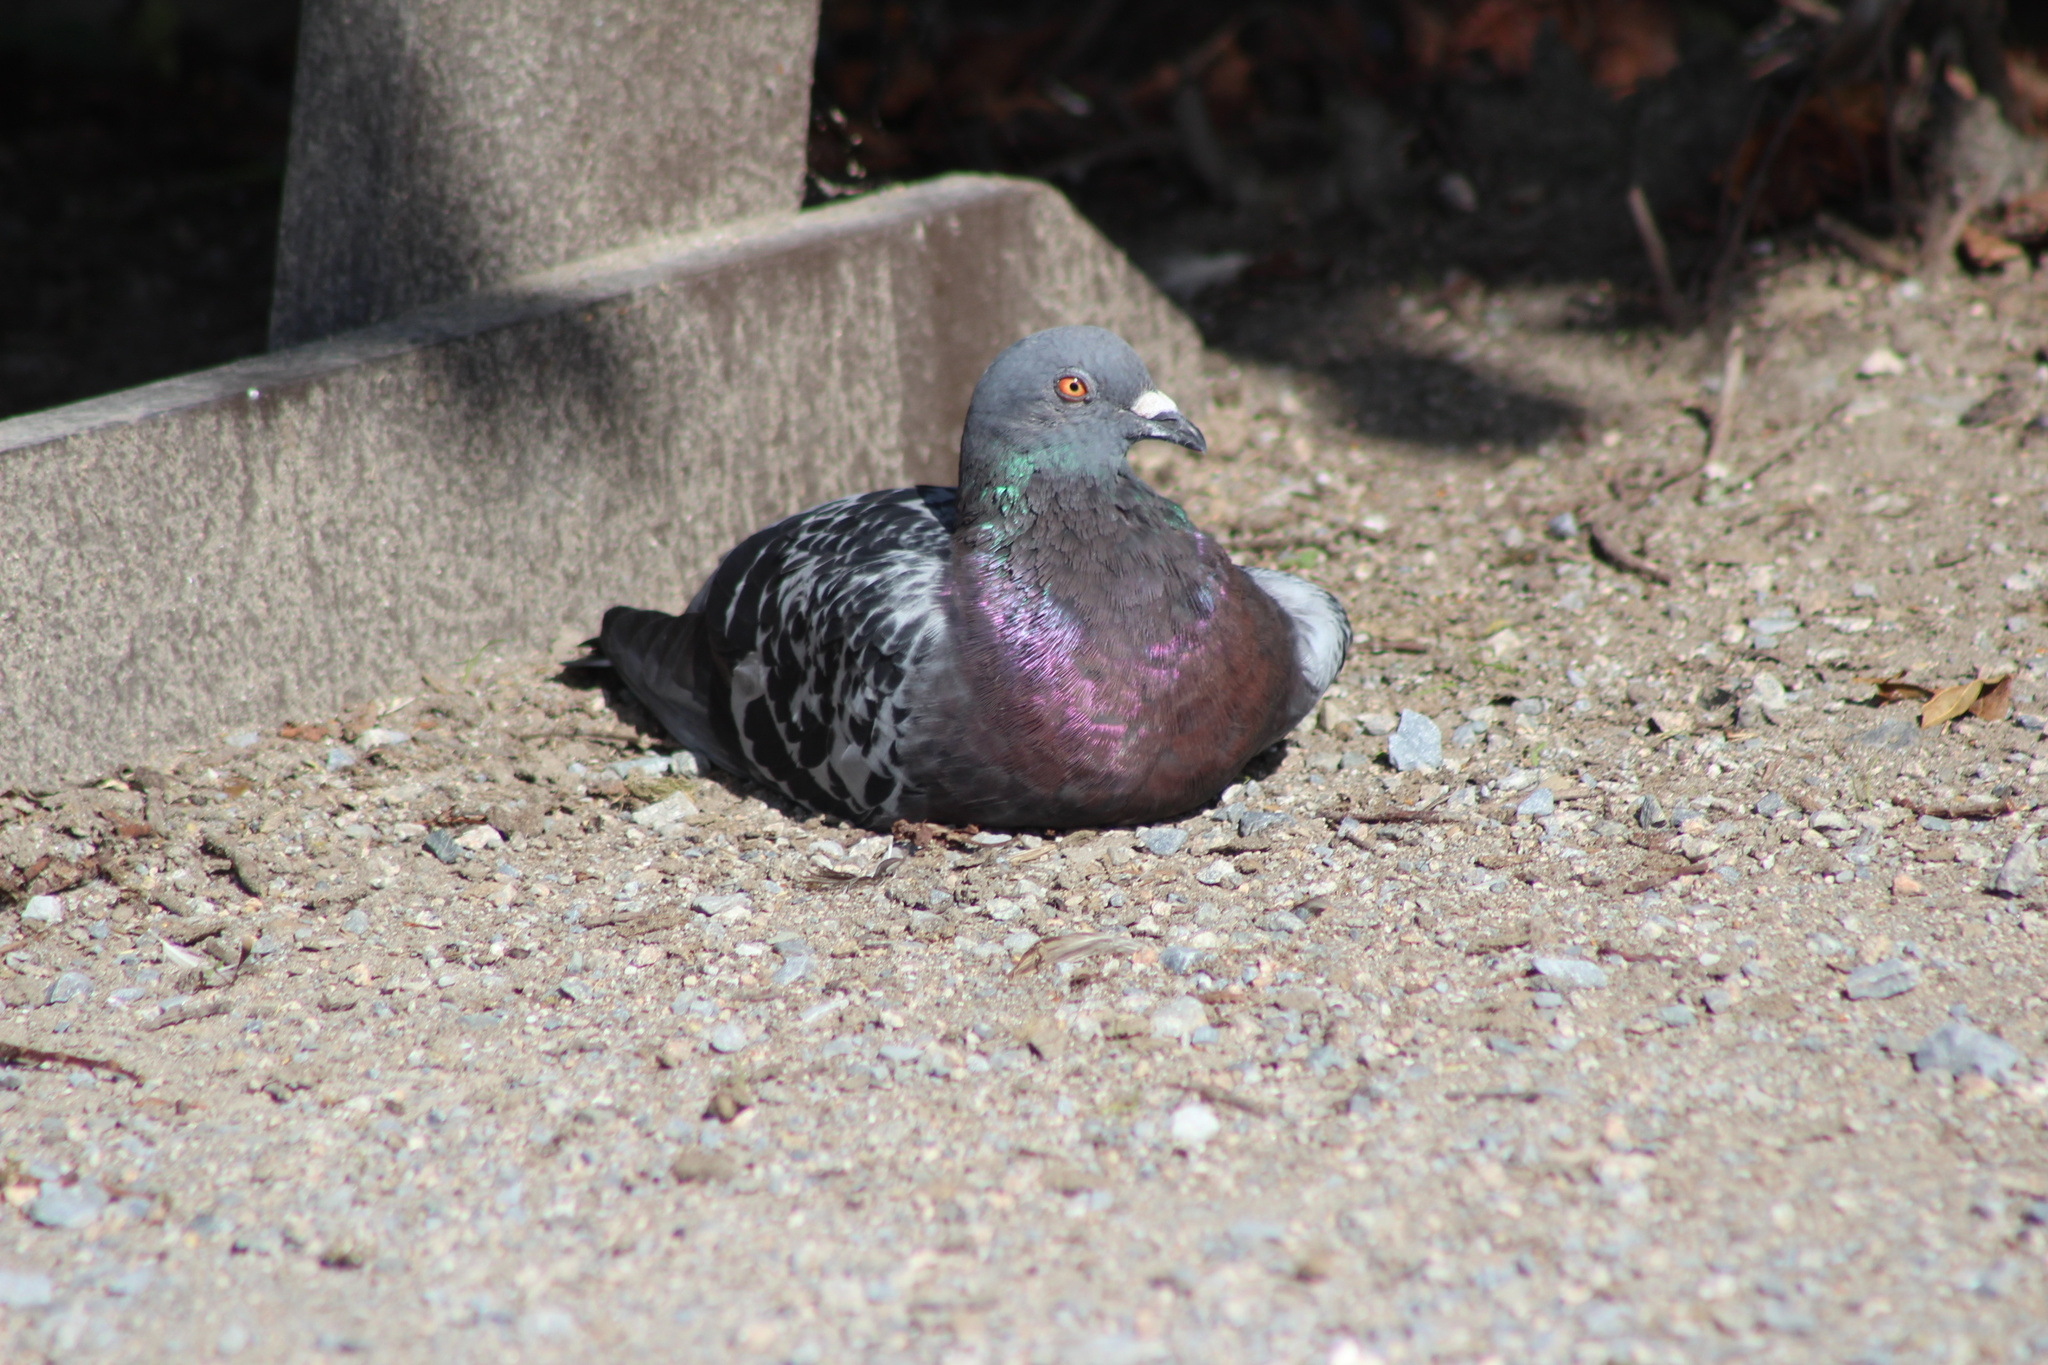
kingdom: Animalia
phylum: Chordata
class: Aves
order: Columbiformes
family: Columbidae
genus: Columba
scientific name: Columba livia
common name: Rock pigeon
